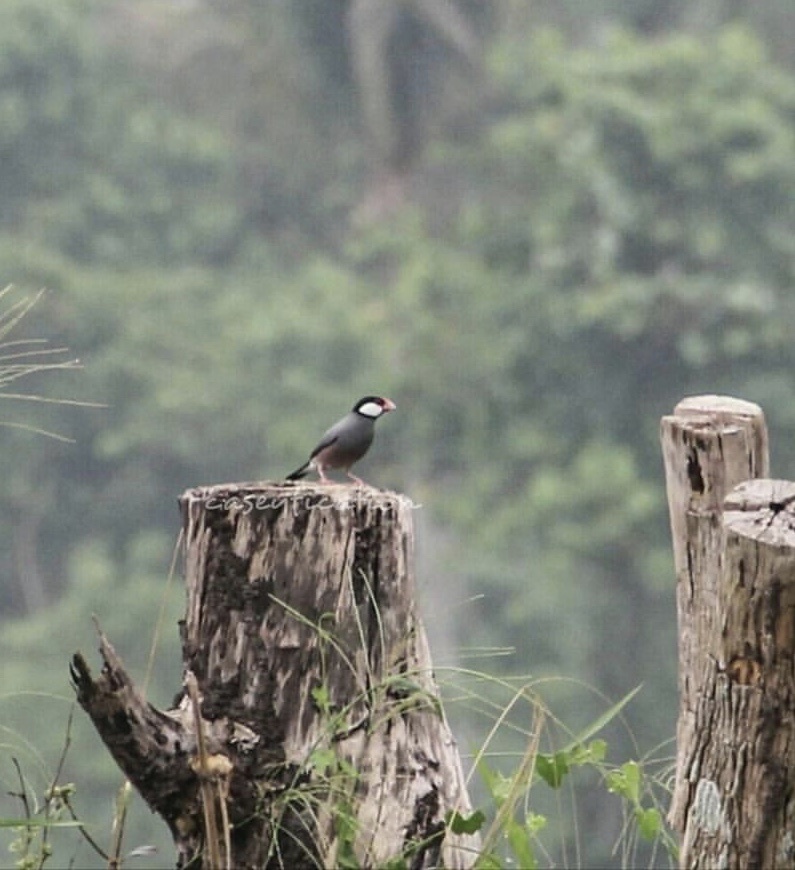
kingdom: Animalia
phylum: Chordata
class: Aves
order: Passeriformes
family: Estrildidae
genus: Lonchura
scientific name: Lonchura oryzivora
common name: Java sparrow
